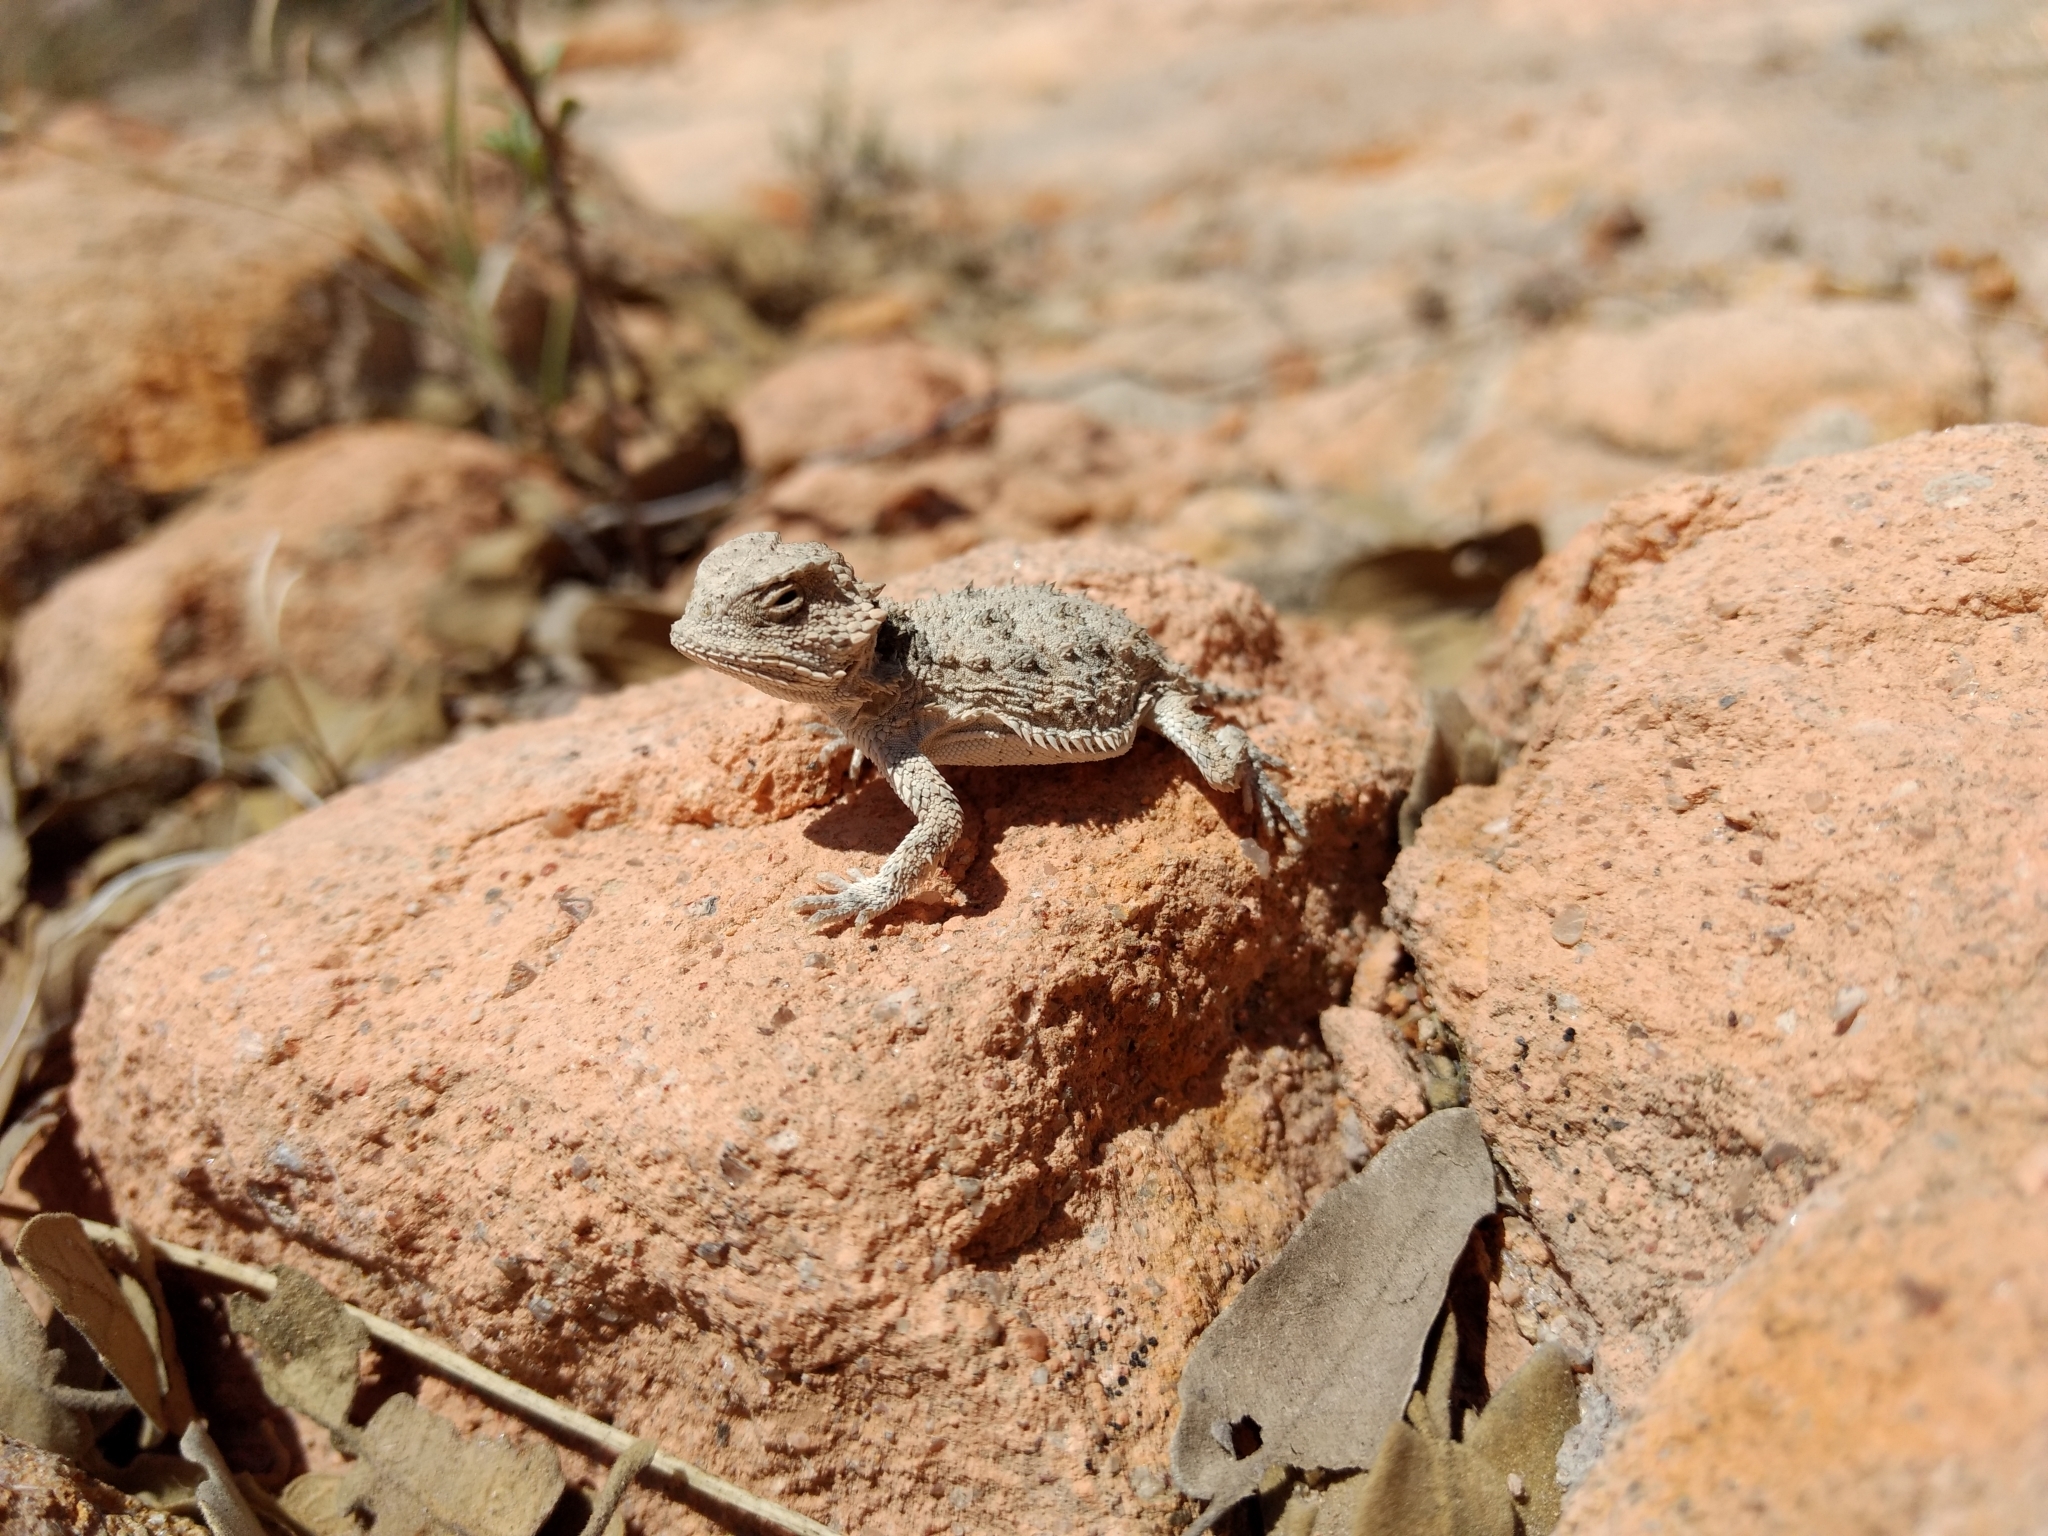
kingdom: Animalia
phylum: Chordata
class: Squamata
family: Phrynosomatidae
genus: Phrynosoma
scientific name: Phrynosoma orbiculare
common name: Mountain horned lizard
